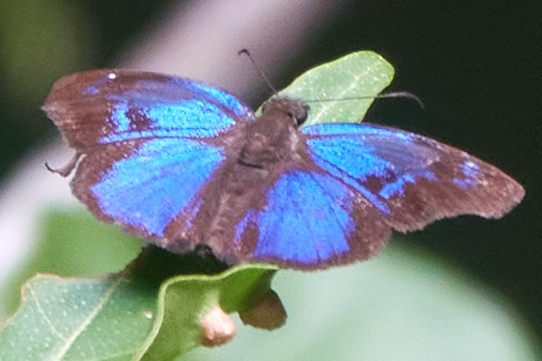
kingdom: Animalia
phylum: Arthropoda
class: Insecta
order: Lepidoptera
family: Hesperiidae
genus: Paches
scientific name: Paches loxus
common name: Glorious blue-skipper
